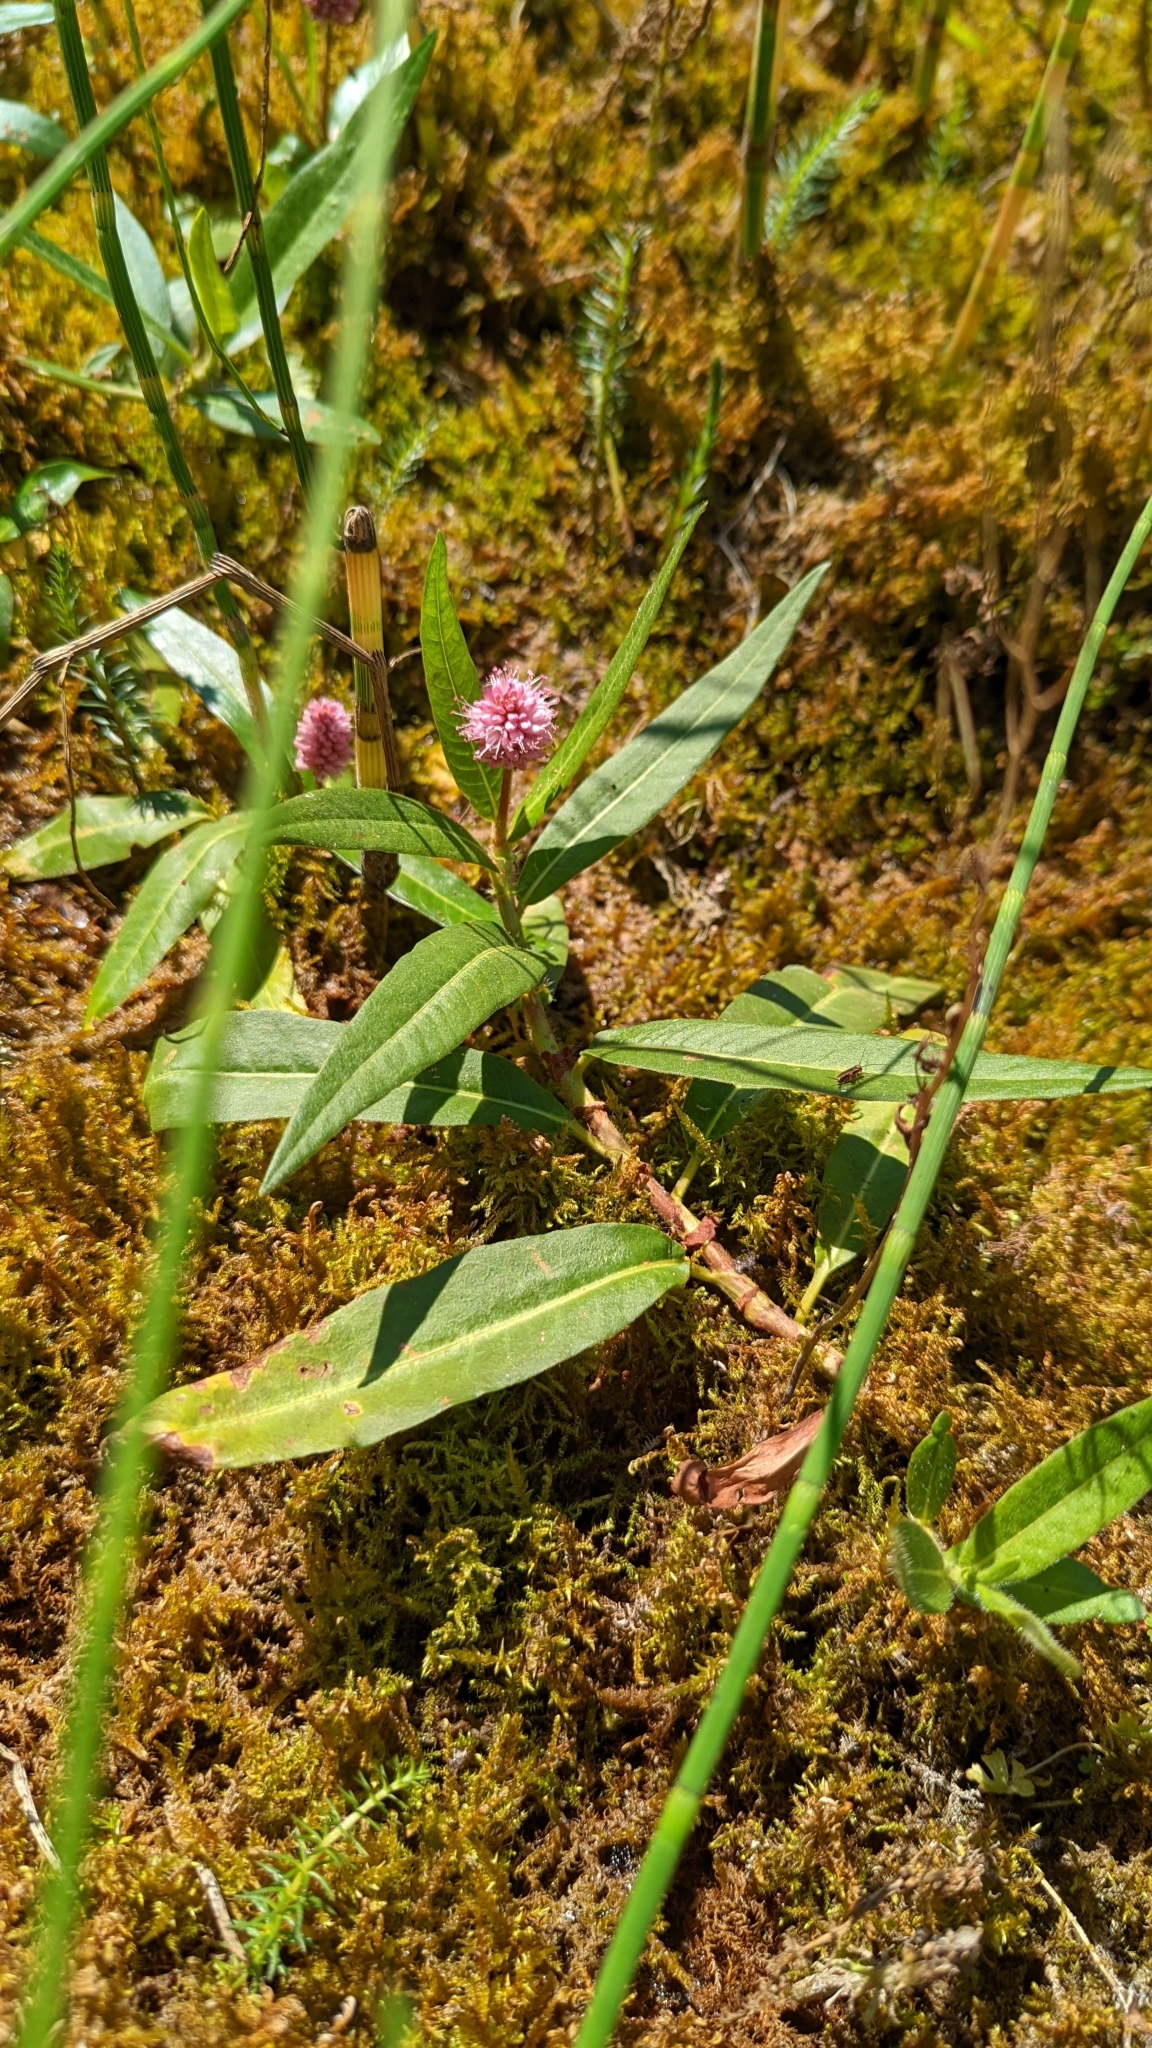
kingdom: Plantae
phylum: Tracheophyta
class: Magnoliopsida
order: Caryophyllales
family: Polygonaceae
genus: Persicaria
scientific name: Persicaria amphibia
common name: Amphibious bistort
